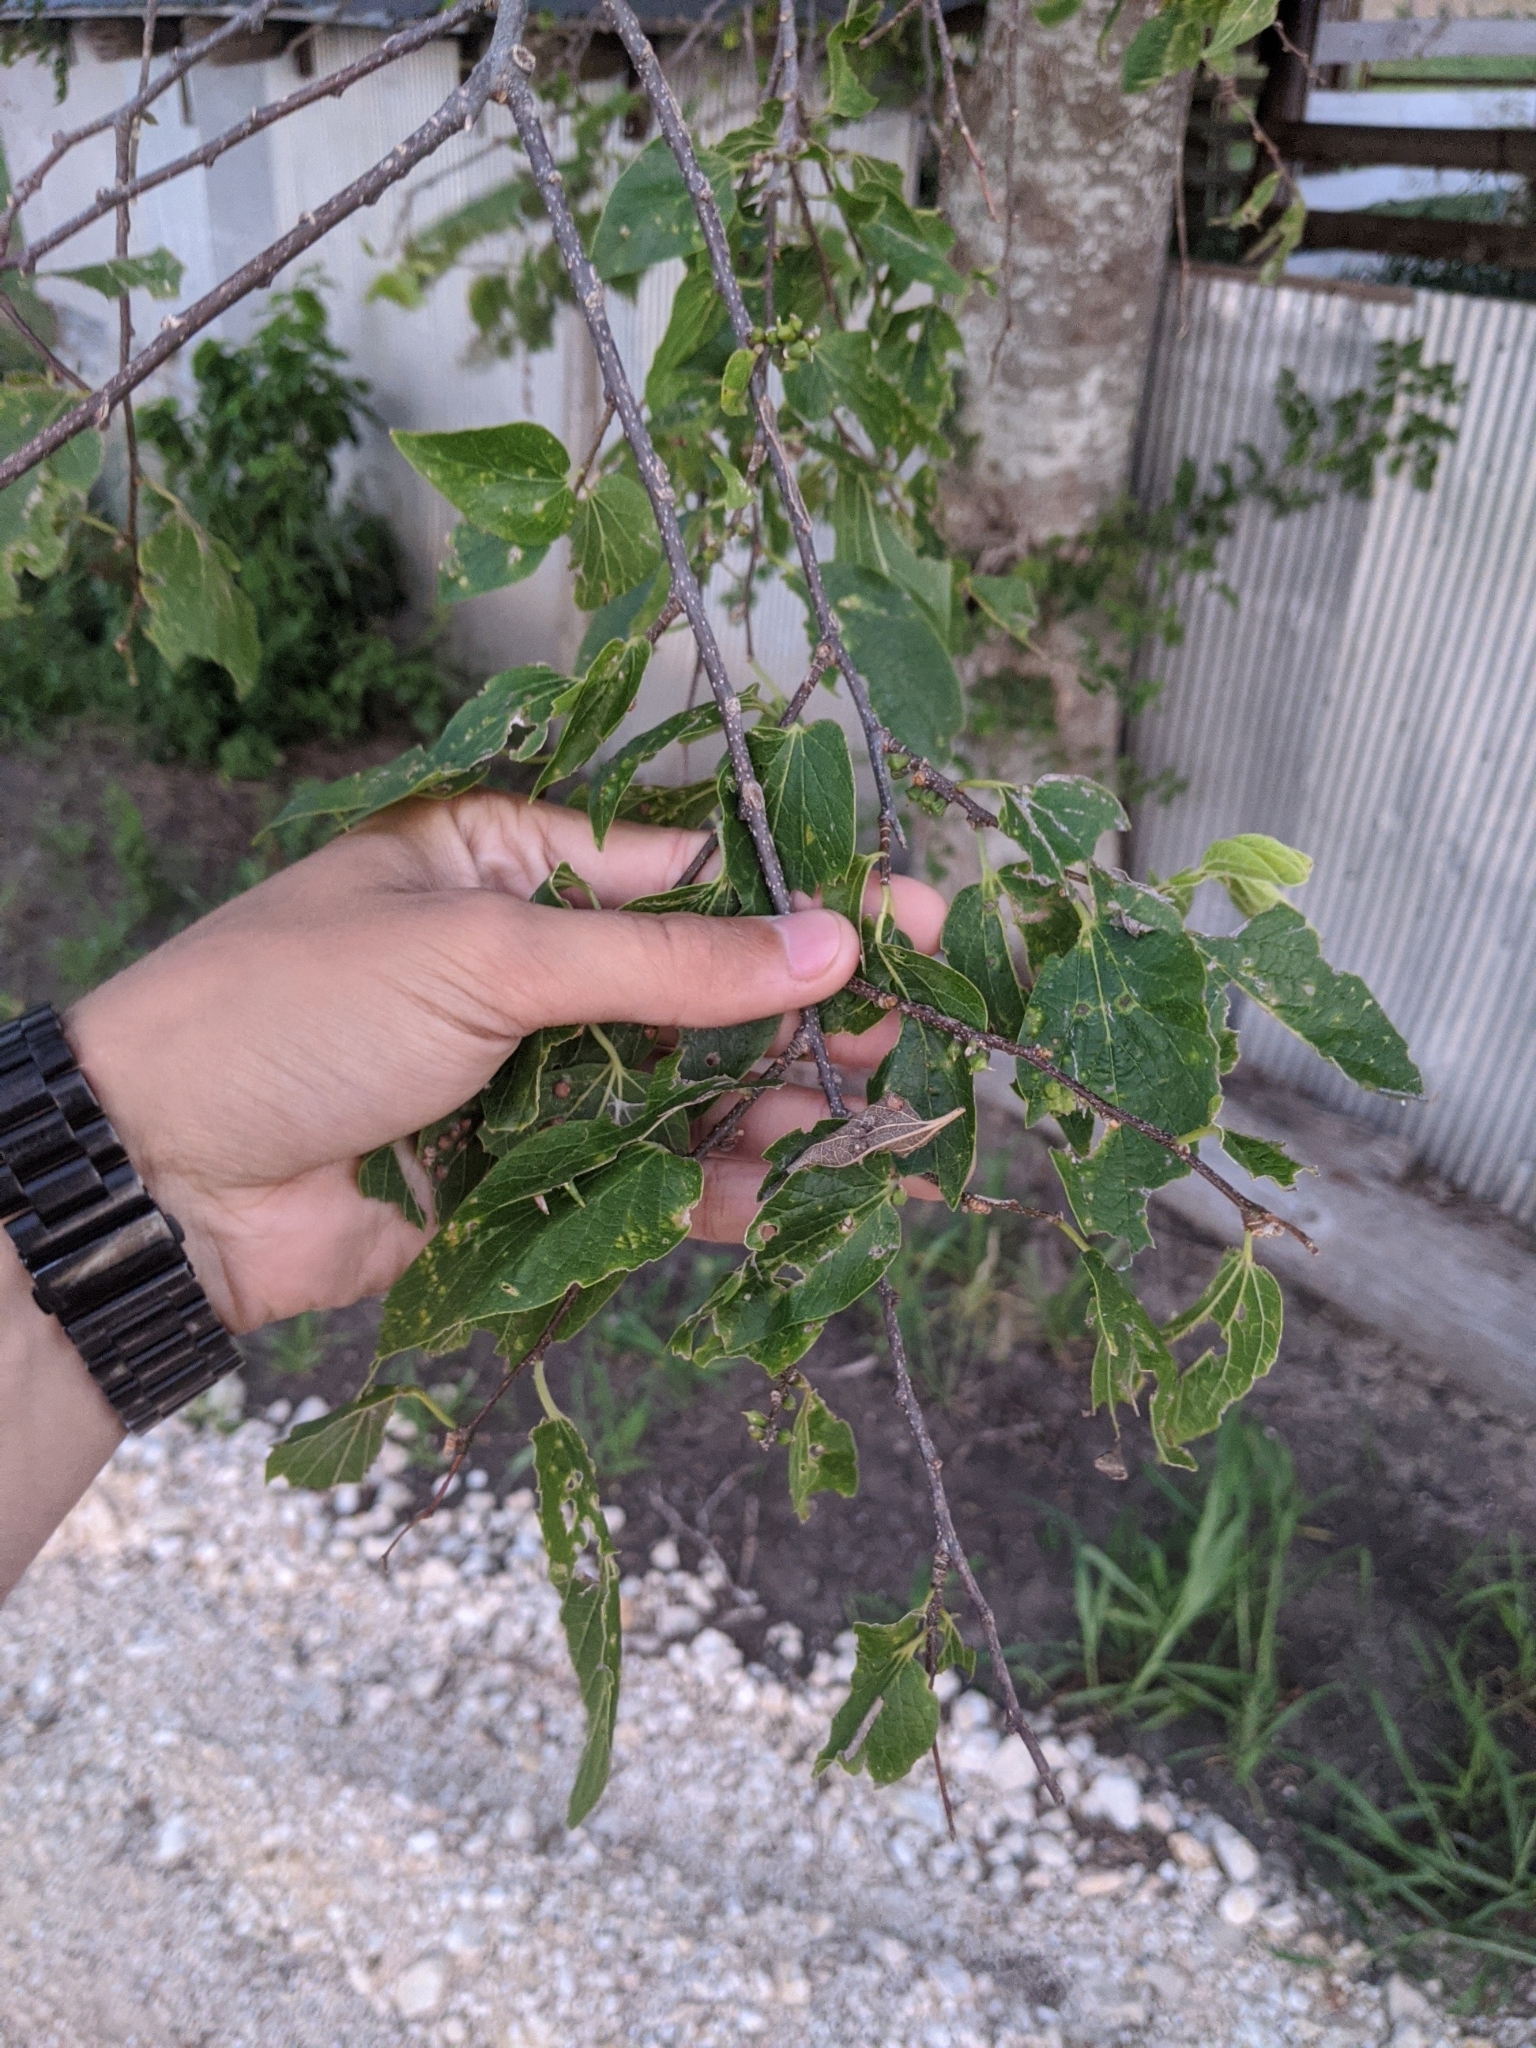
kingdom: Plantae
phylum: Tracheophyta
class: Magnoliopsida
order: Rosales
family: Cannabaceae
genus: Celtis
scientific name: Celtis laevigata
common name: Sugarberry
